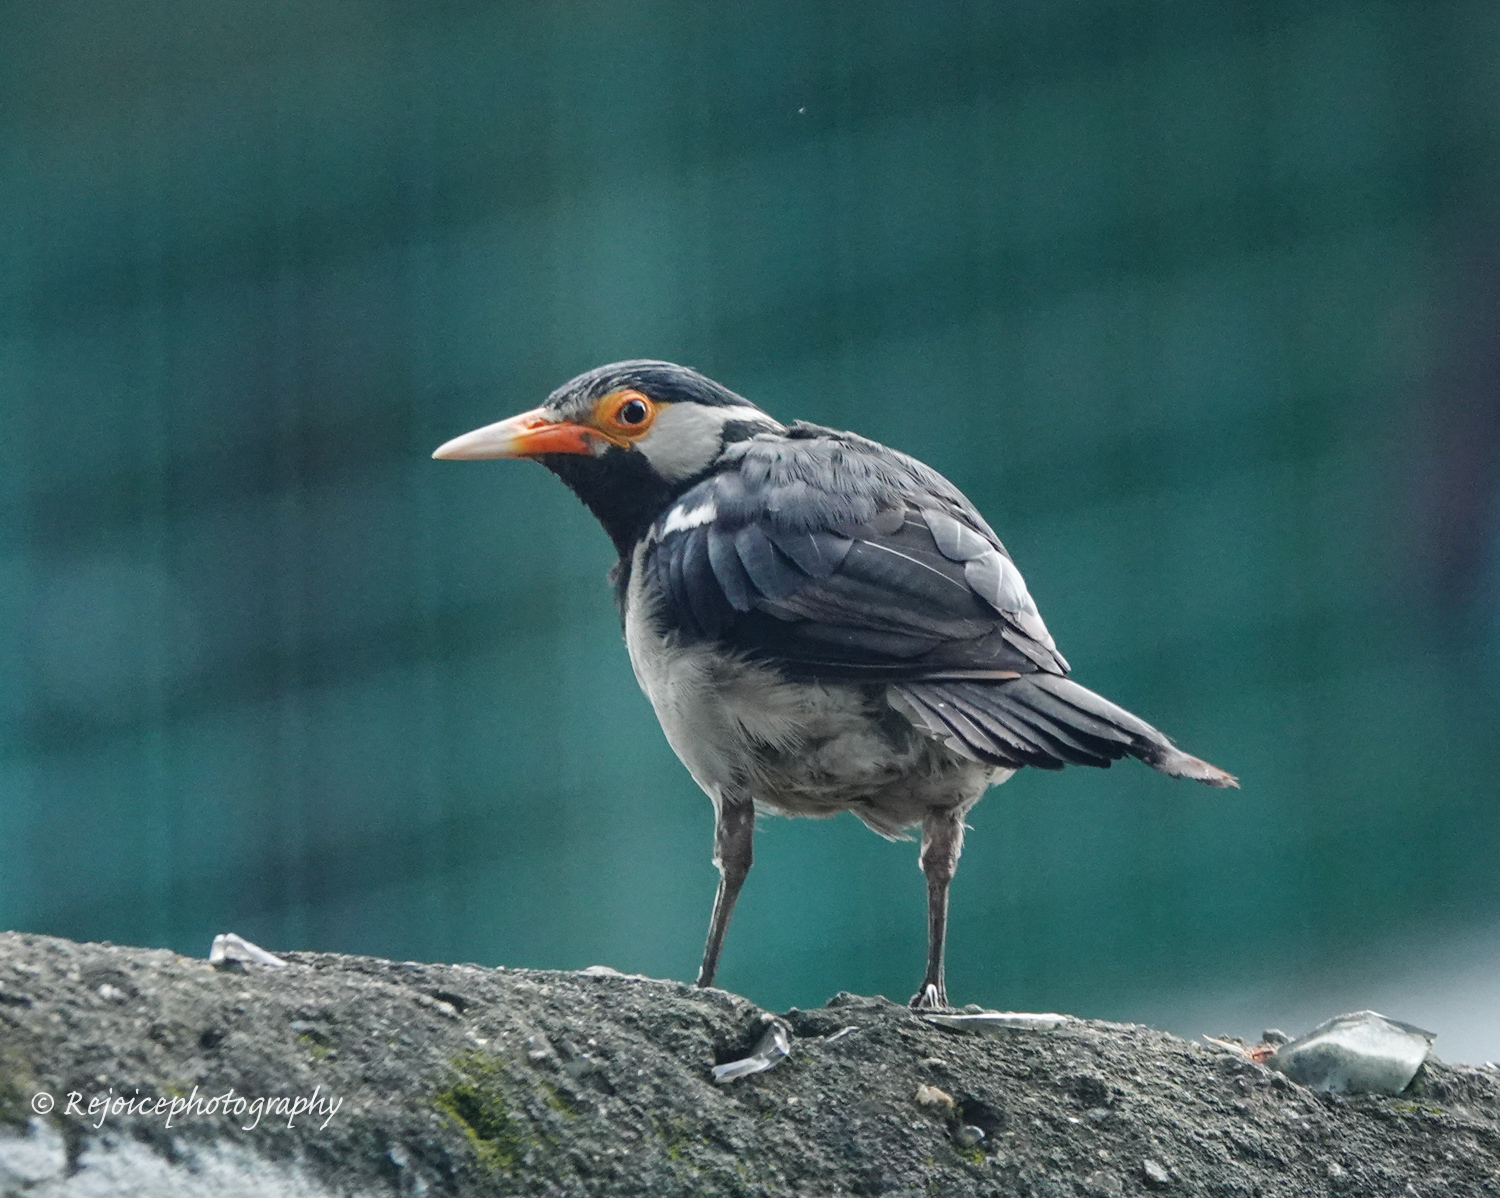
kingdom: Animalia
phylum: Chordata
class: Aves
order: Passeriformes
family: Sturnidae
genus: Gracupica
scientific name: Gracupica contra
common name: Pied myna
